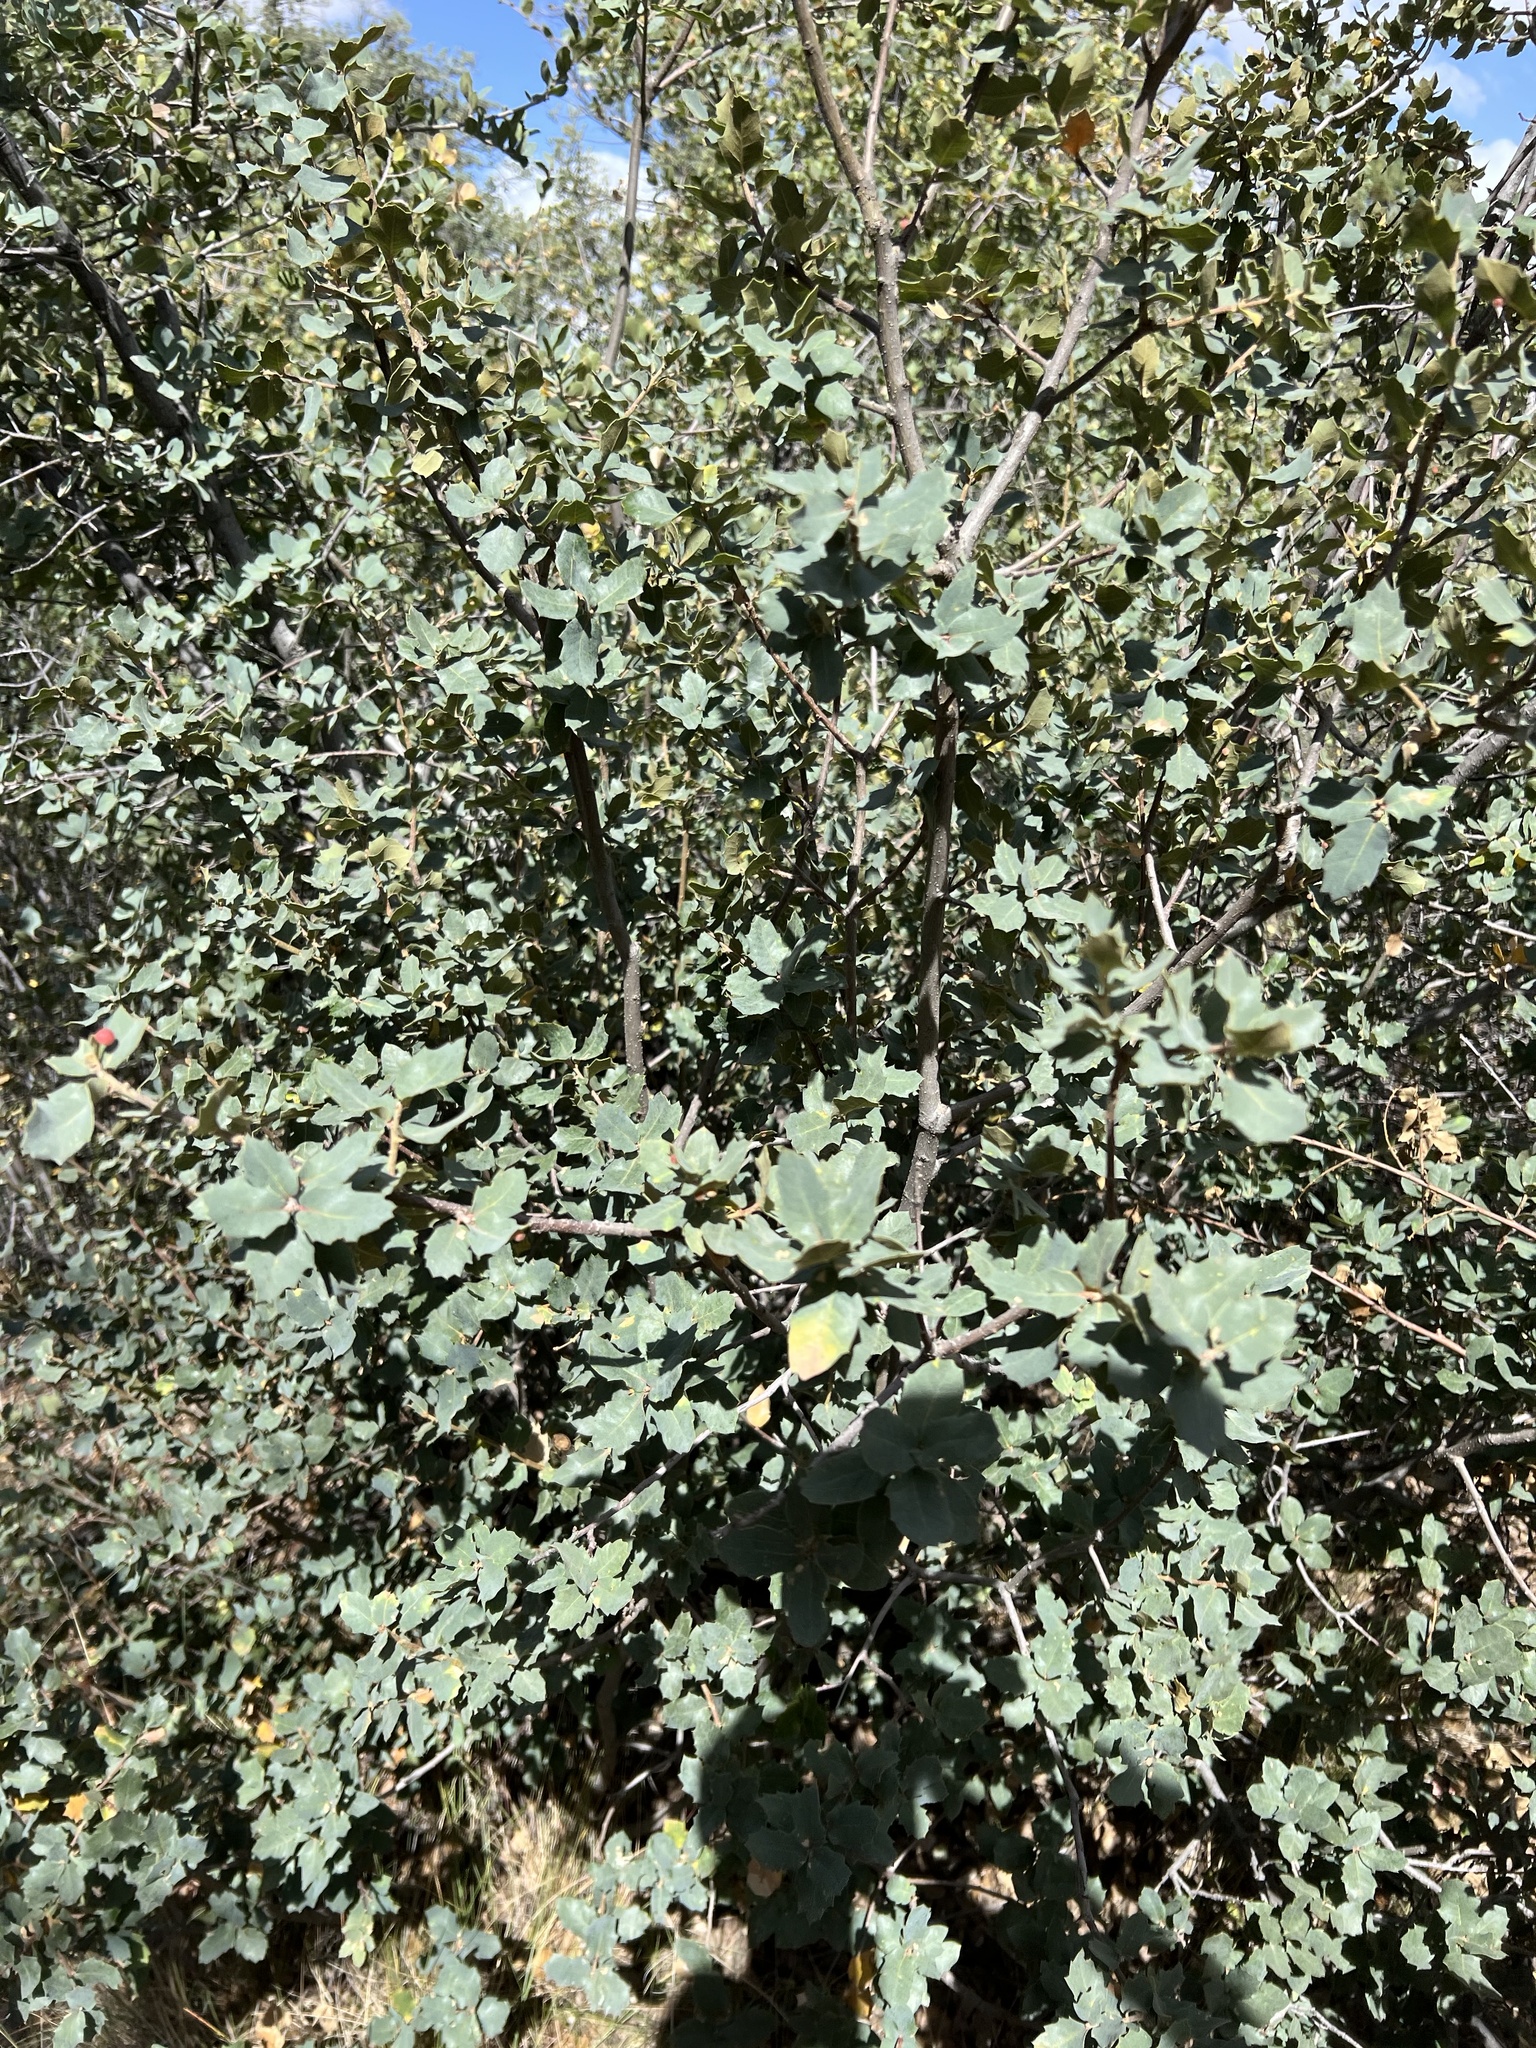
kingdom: Plantae
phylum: Tracheophyta
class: Magnoliopsida
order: Fagales
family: Fagaceae
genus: Quercus
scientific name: Quercus turbinella
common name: Sonoran scrub oak
